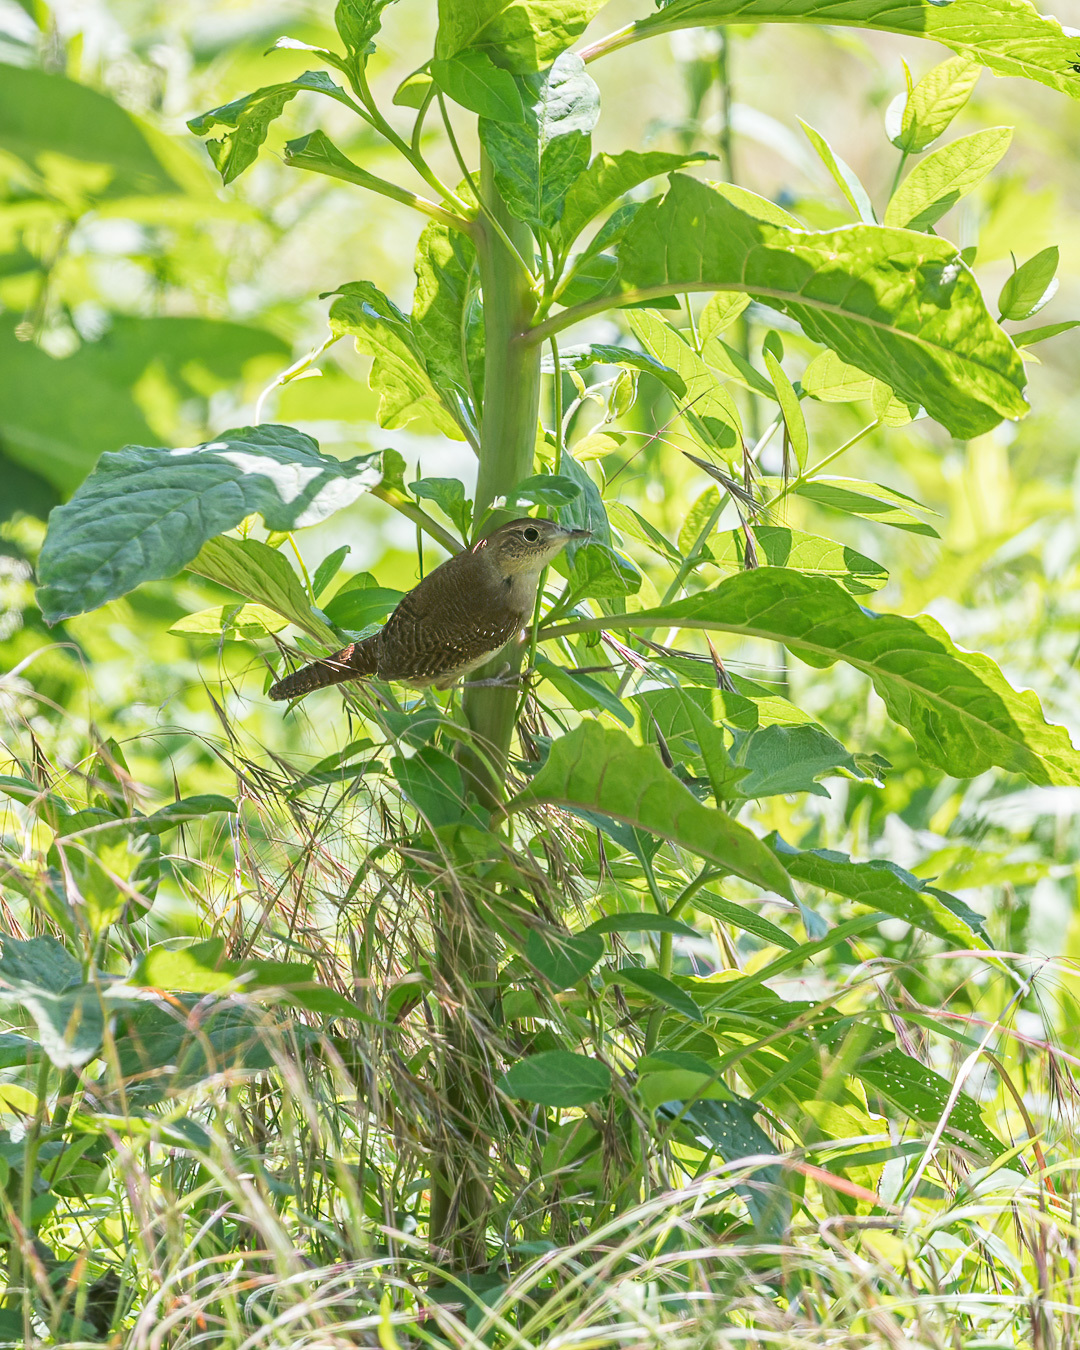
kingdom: Animalia
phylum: Chordata
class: Aves
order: Passeriformes
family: Troglodytidae
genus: Troglodytes
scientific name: Troglodytes aedon
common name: House wren
